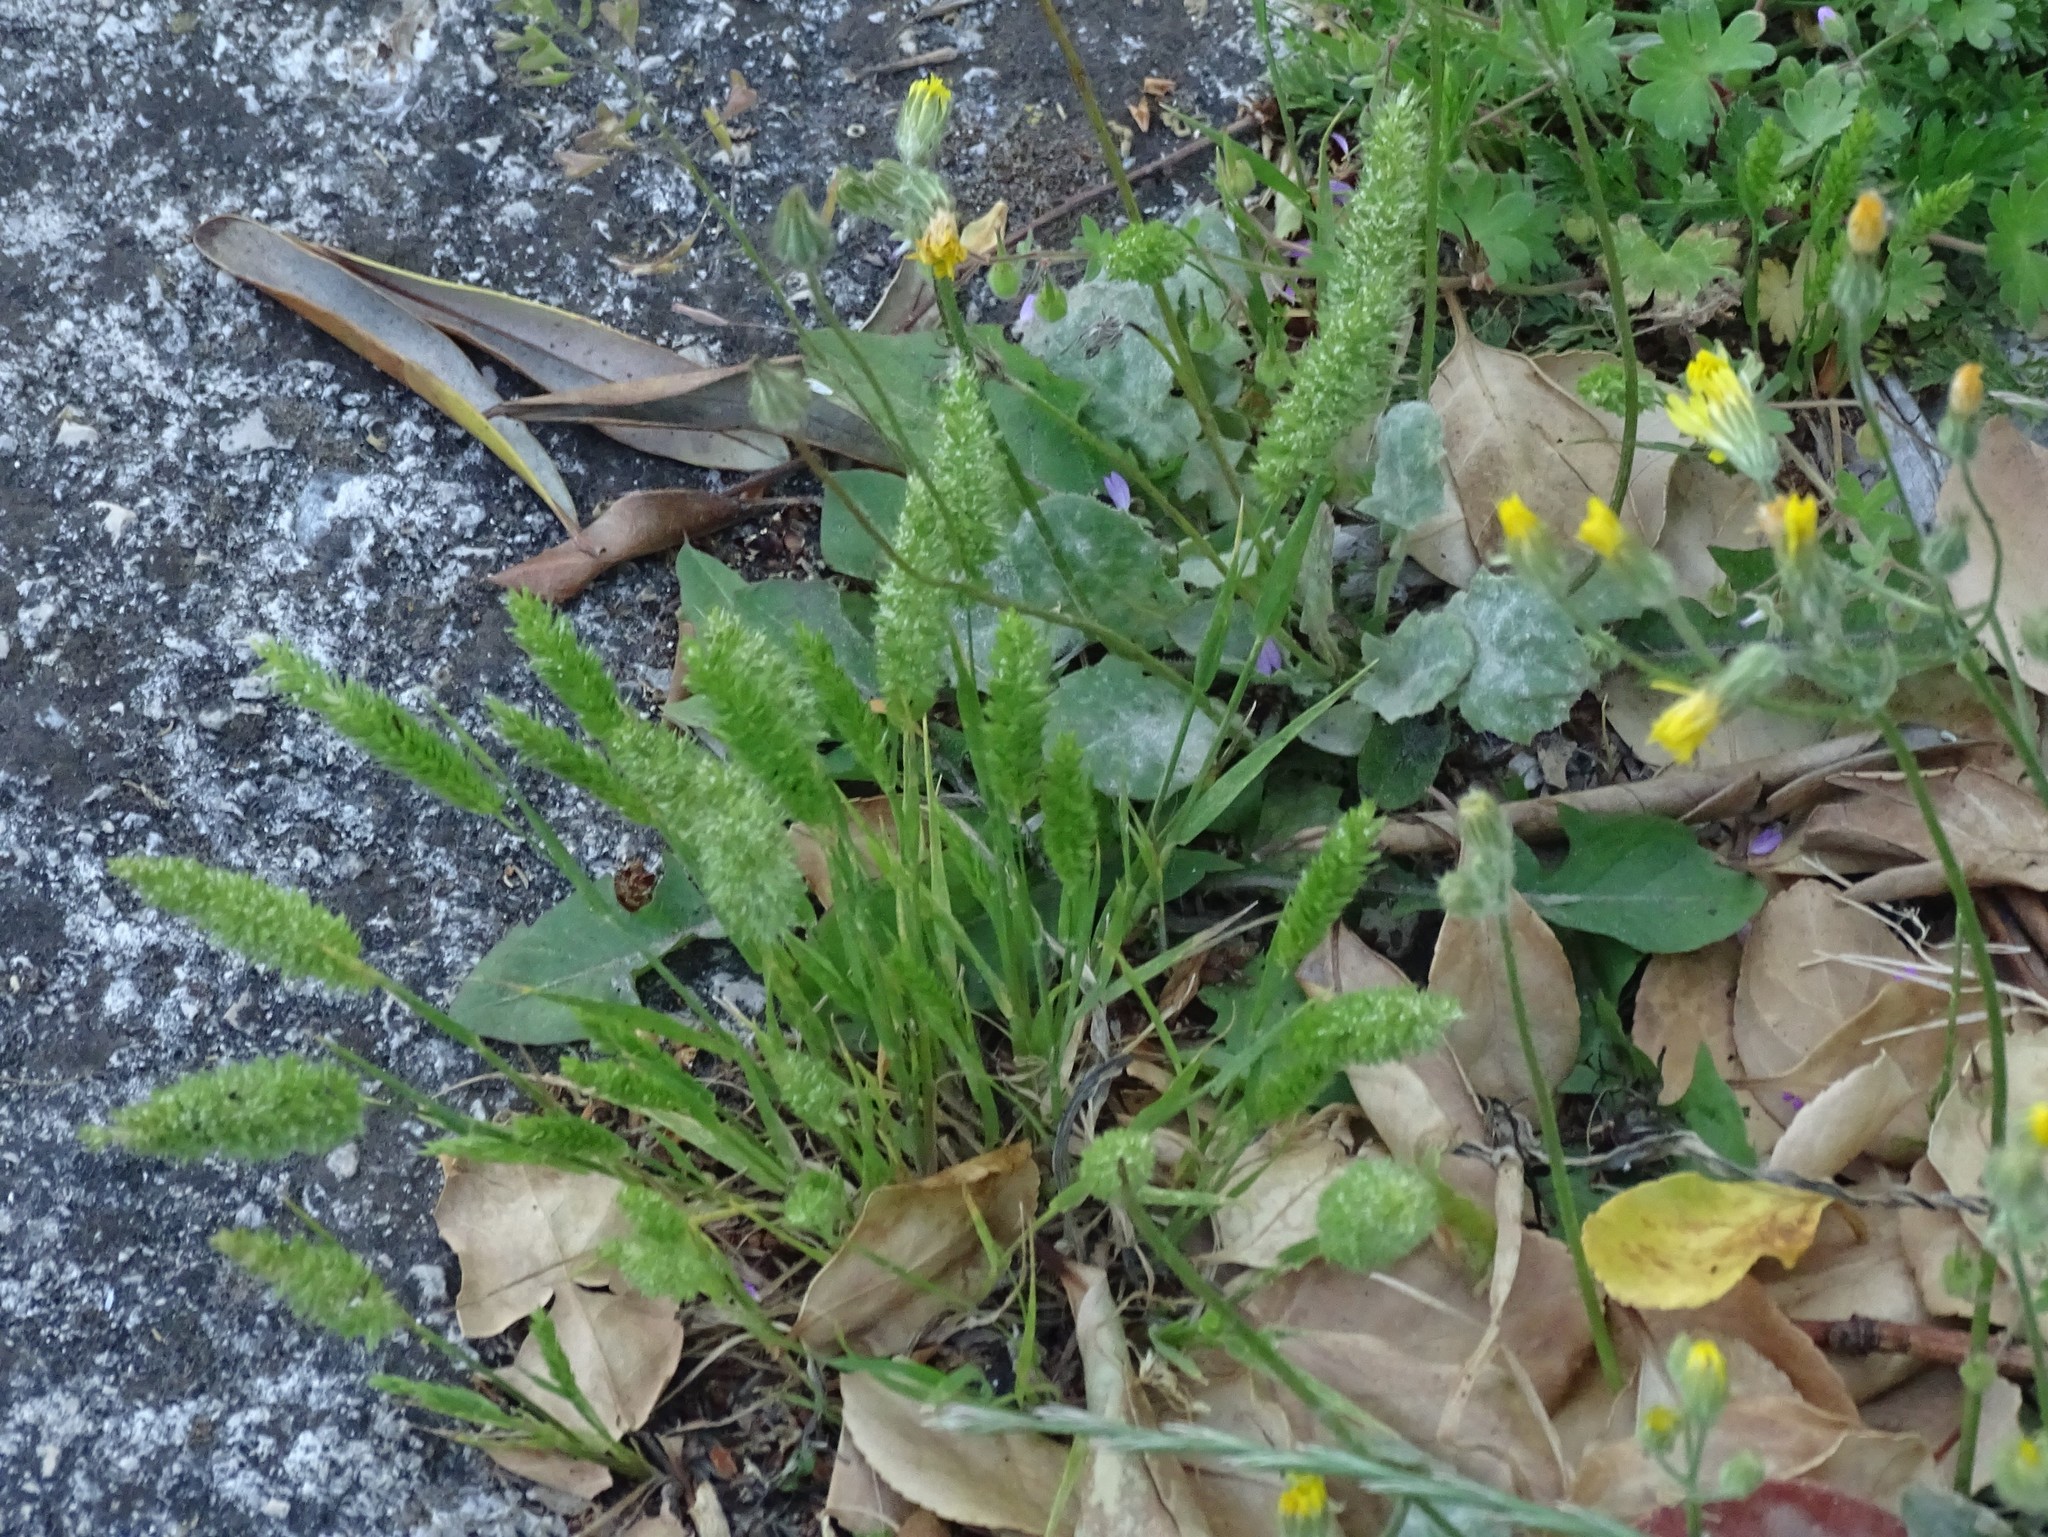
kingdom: Plantae
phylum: Tracheophyta
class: Liliopsida
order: Poales
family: Poaceae
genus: Rostraria
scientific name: Rostraria cristata
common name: Mediterranean hair-grass
